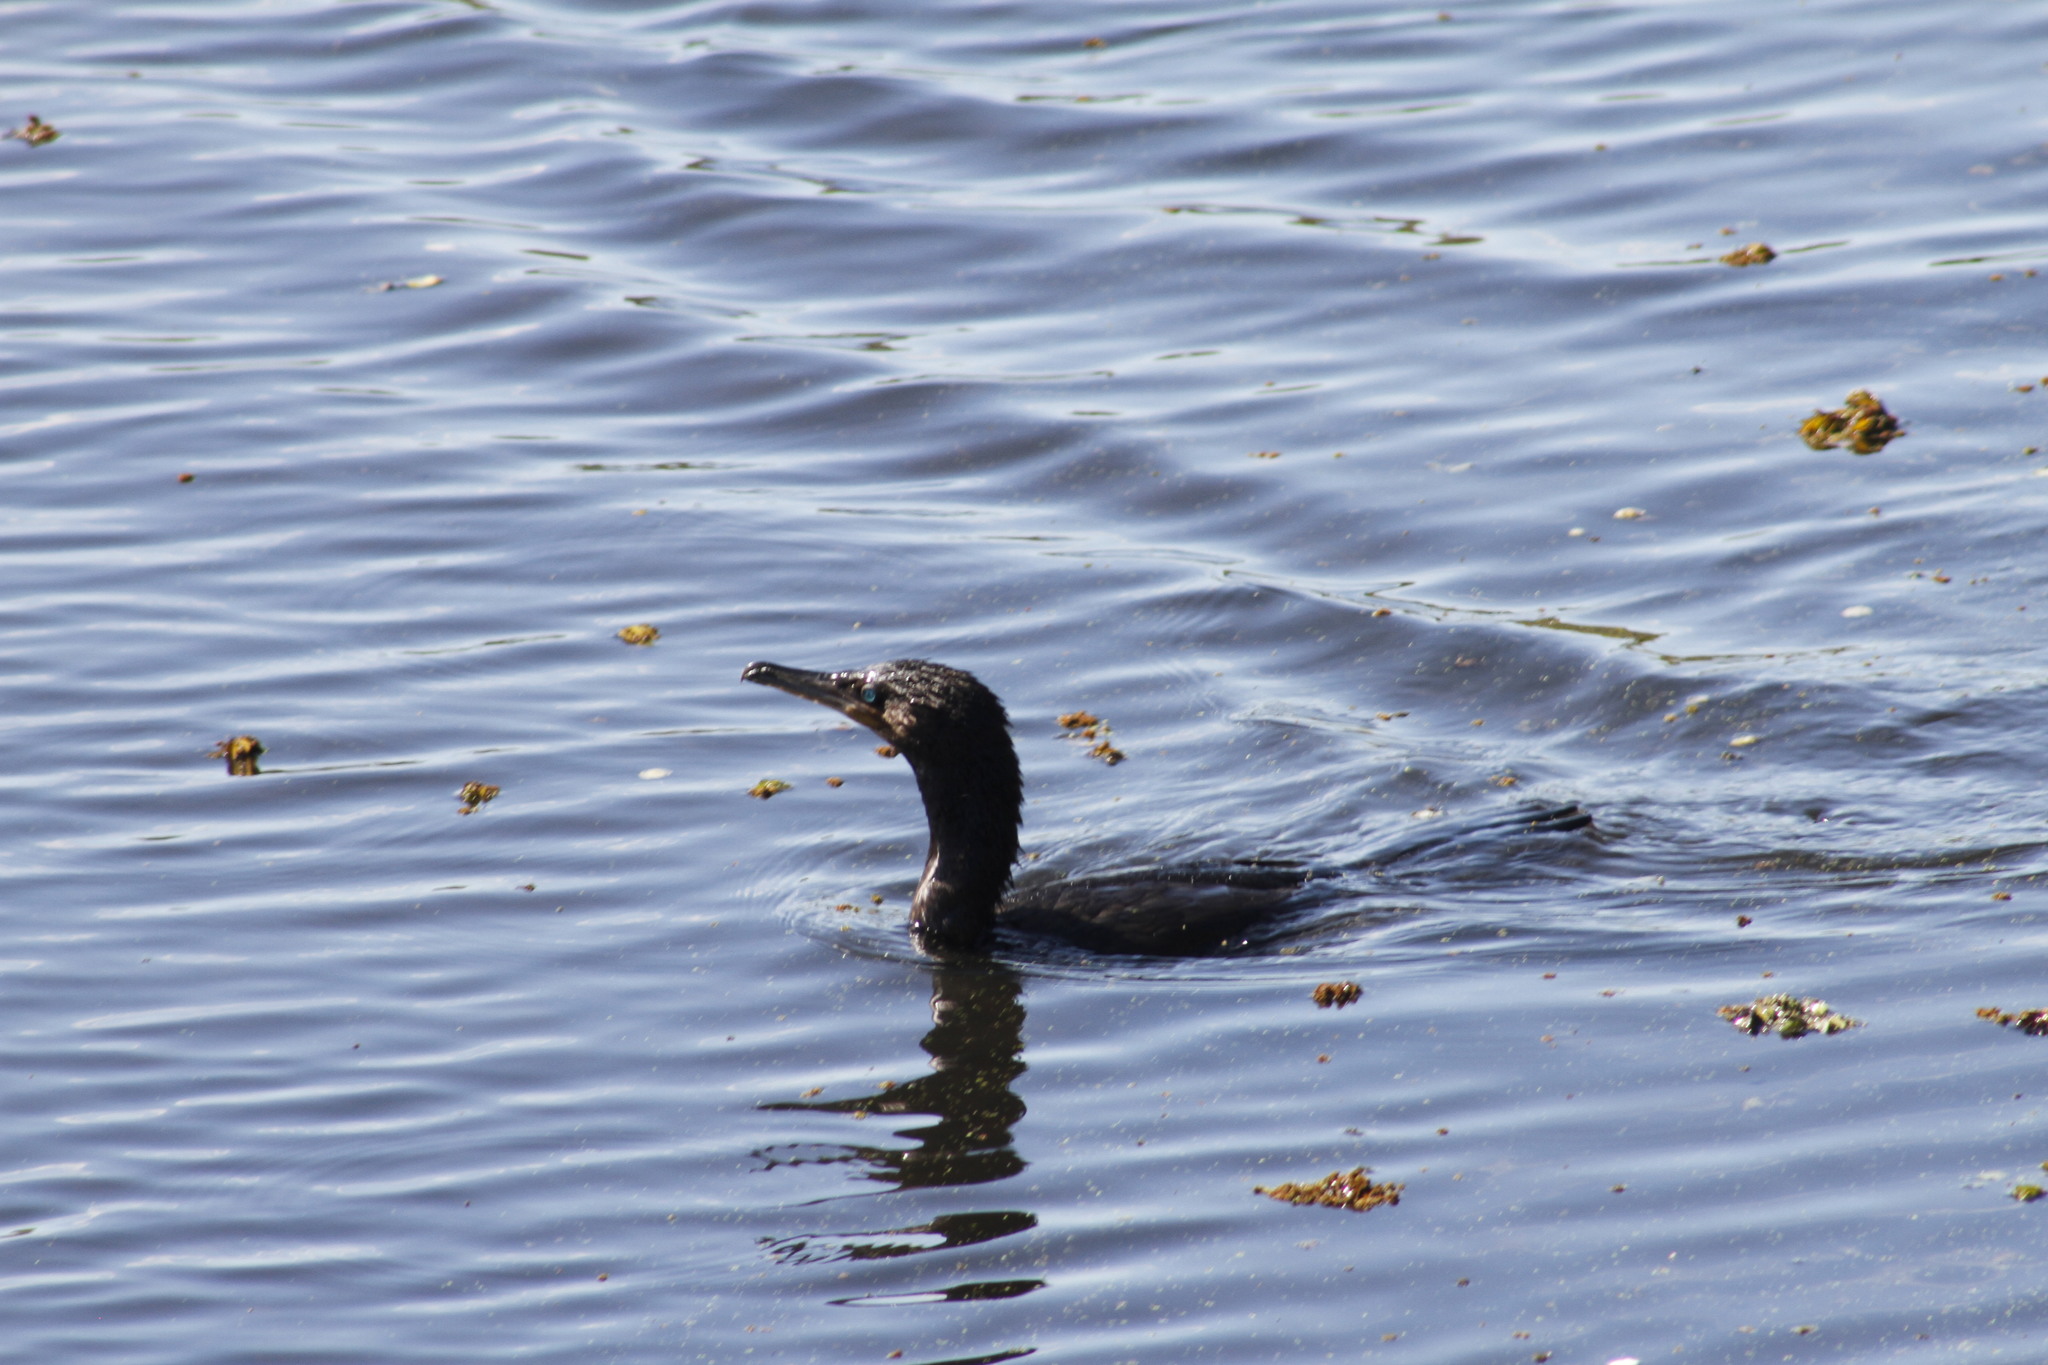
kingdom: Animalia
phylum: Chordata
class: Aves
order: Suliformes
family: Phalacrocoracidae
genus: Phalacrocorax
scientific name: Phalacrocorax brasilianus
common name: Neotropic cormorant
